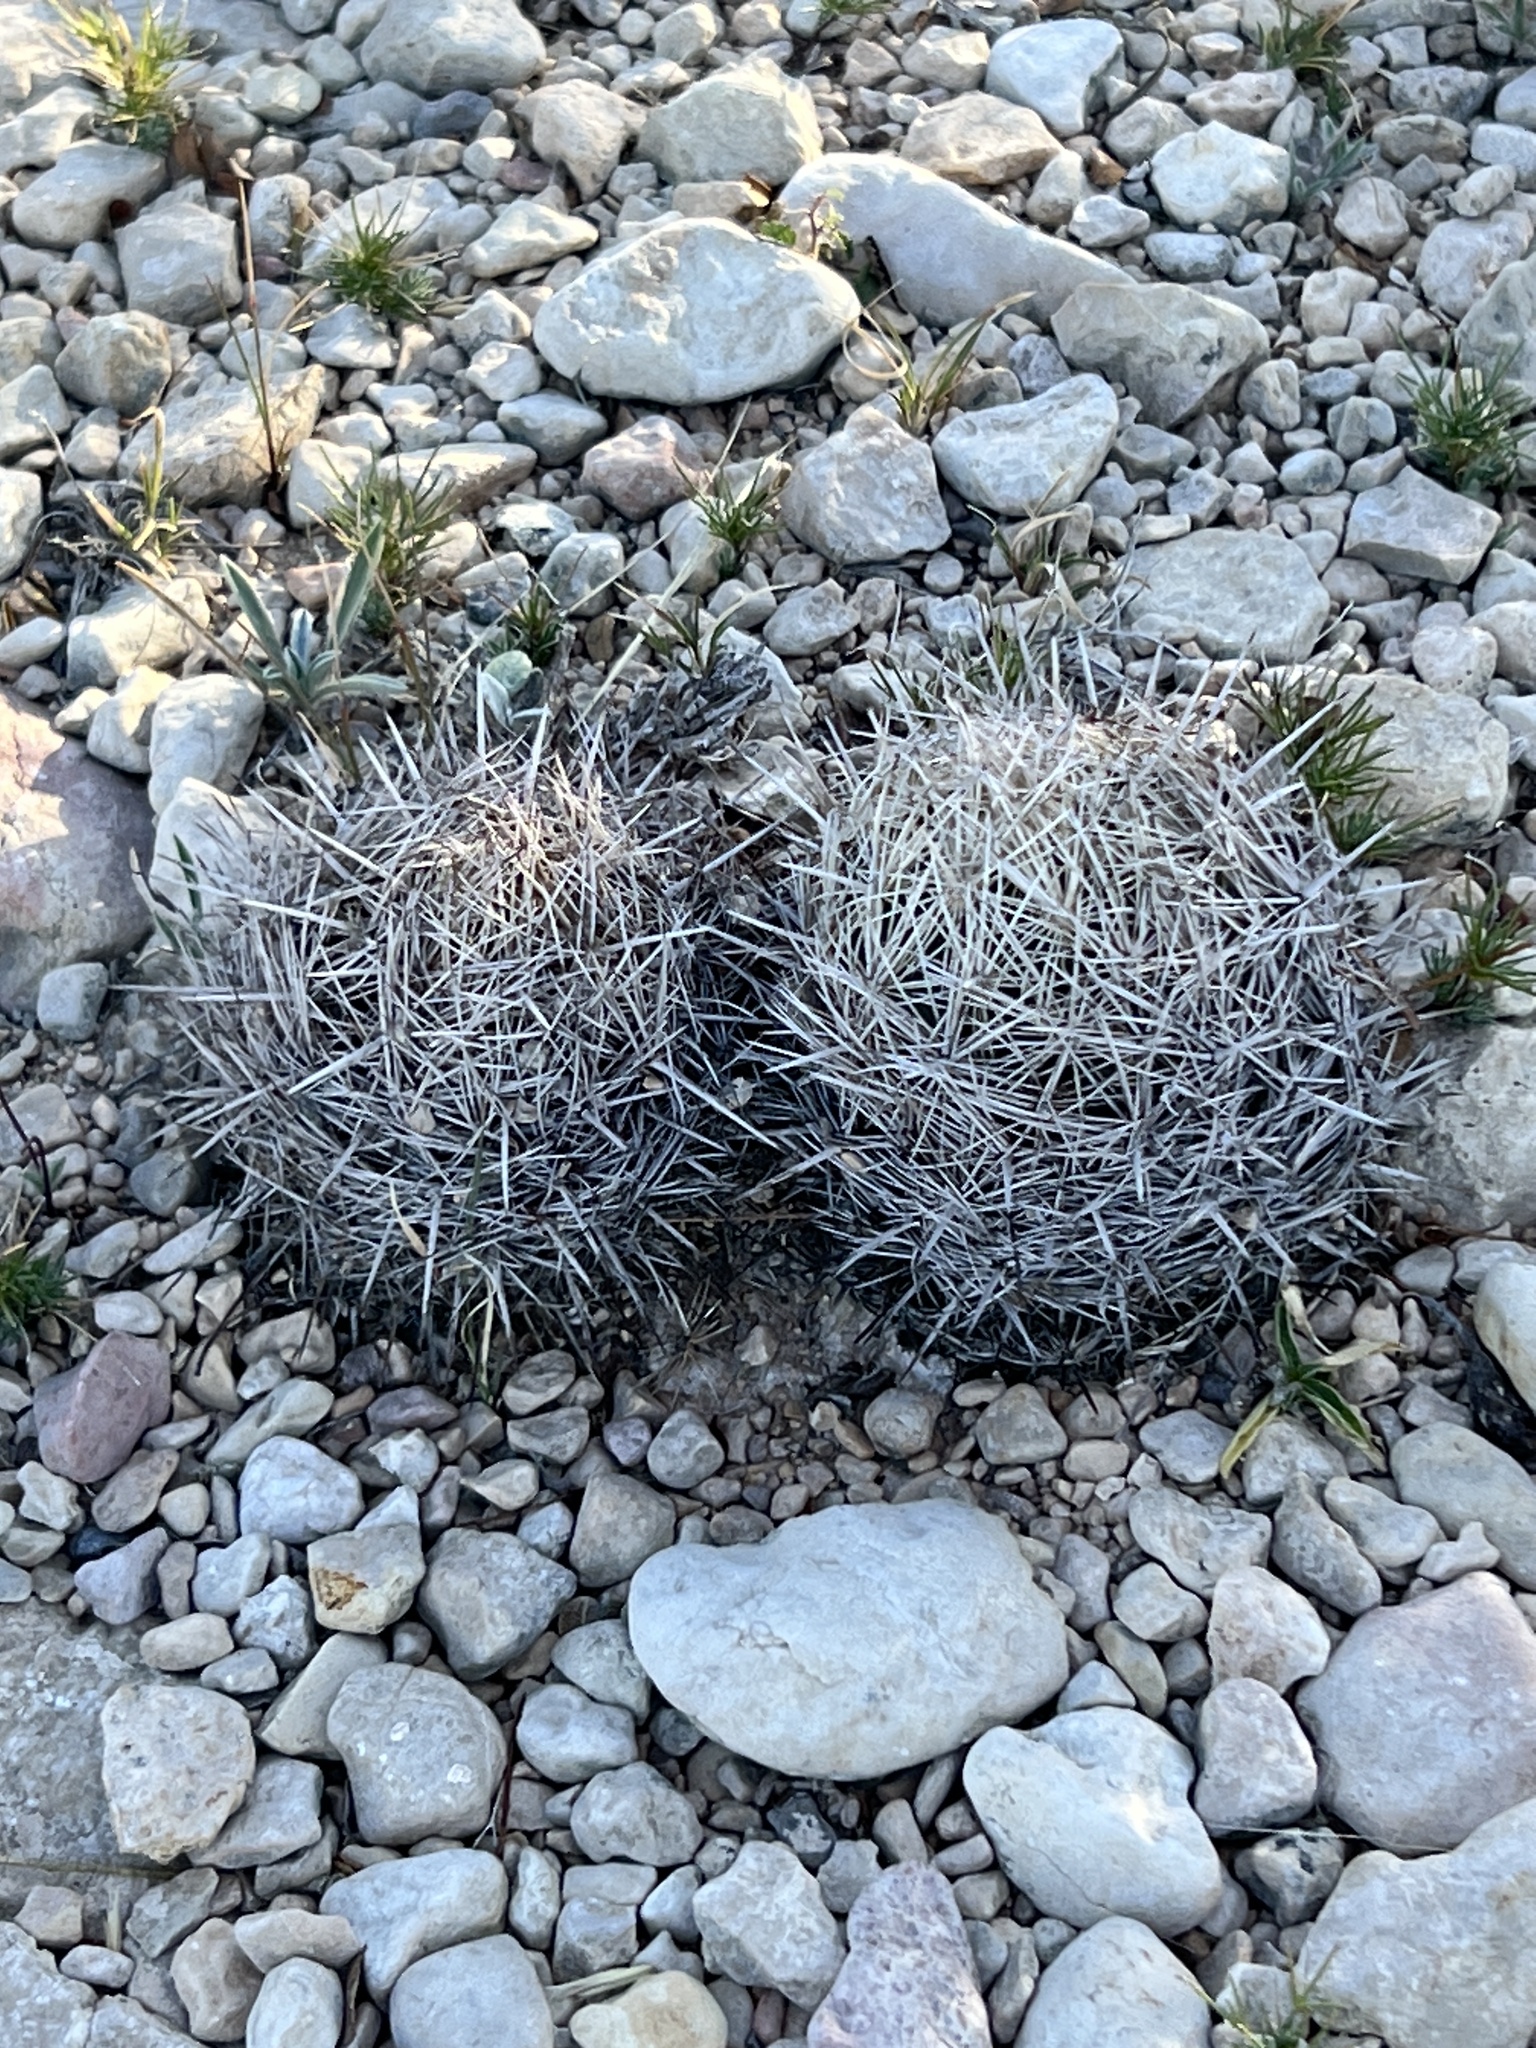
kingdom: Plantae
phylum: Tracheophyta
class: Magnoliopsida
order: Caryophyllales
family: Cactaceae
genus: Coryphantha
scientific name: Coryphantha echinus
